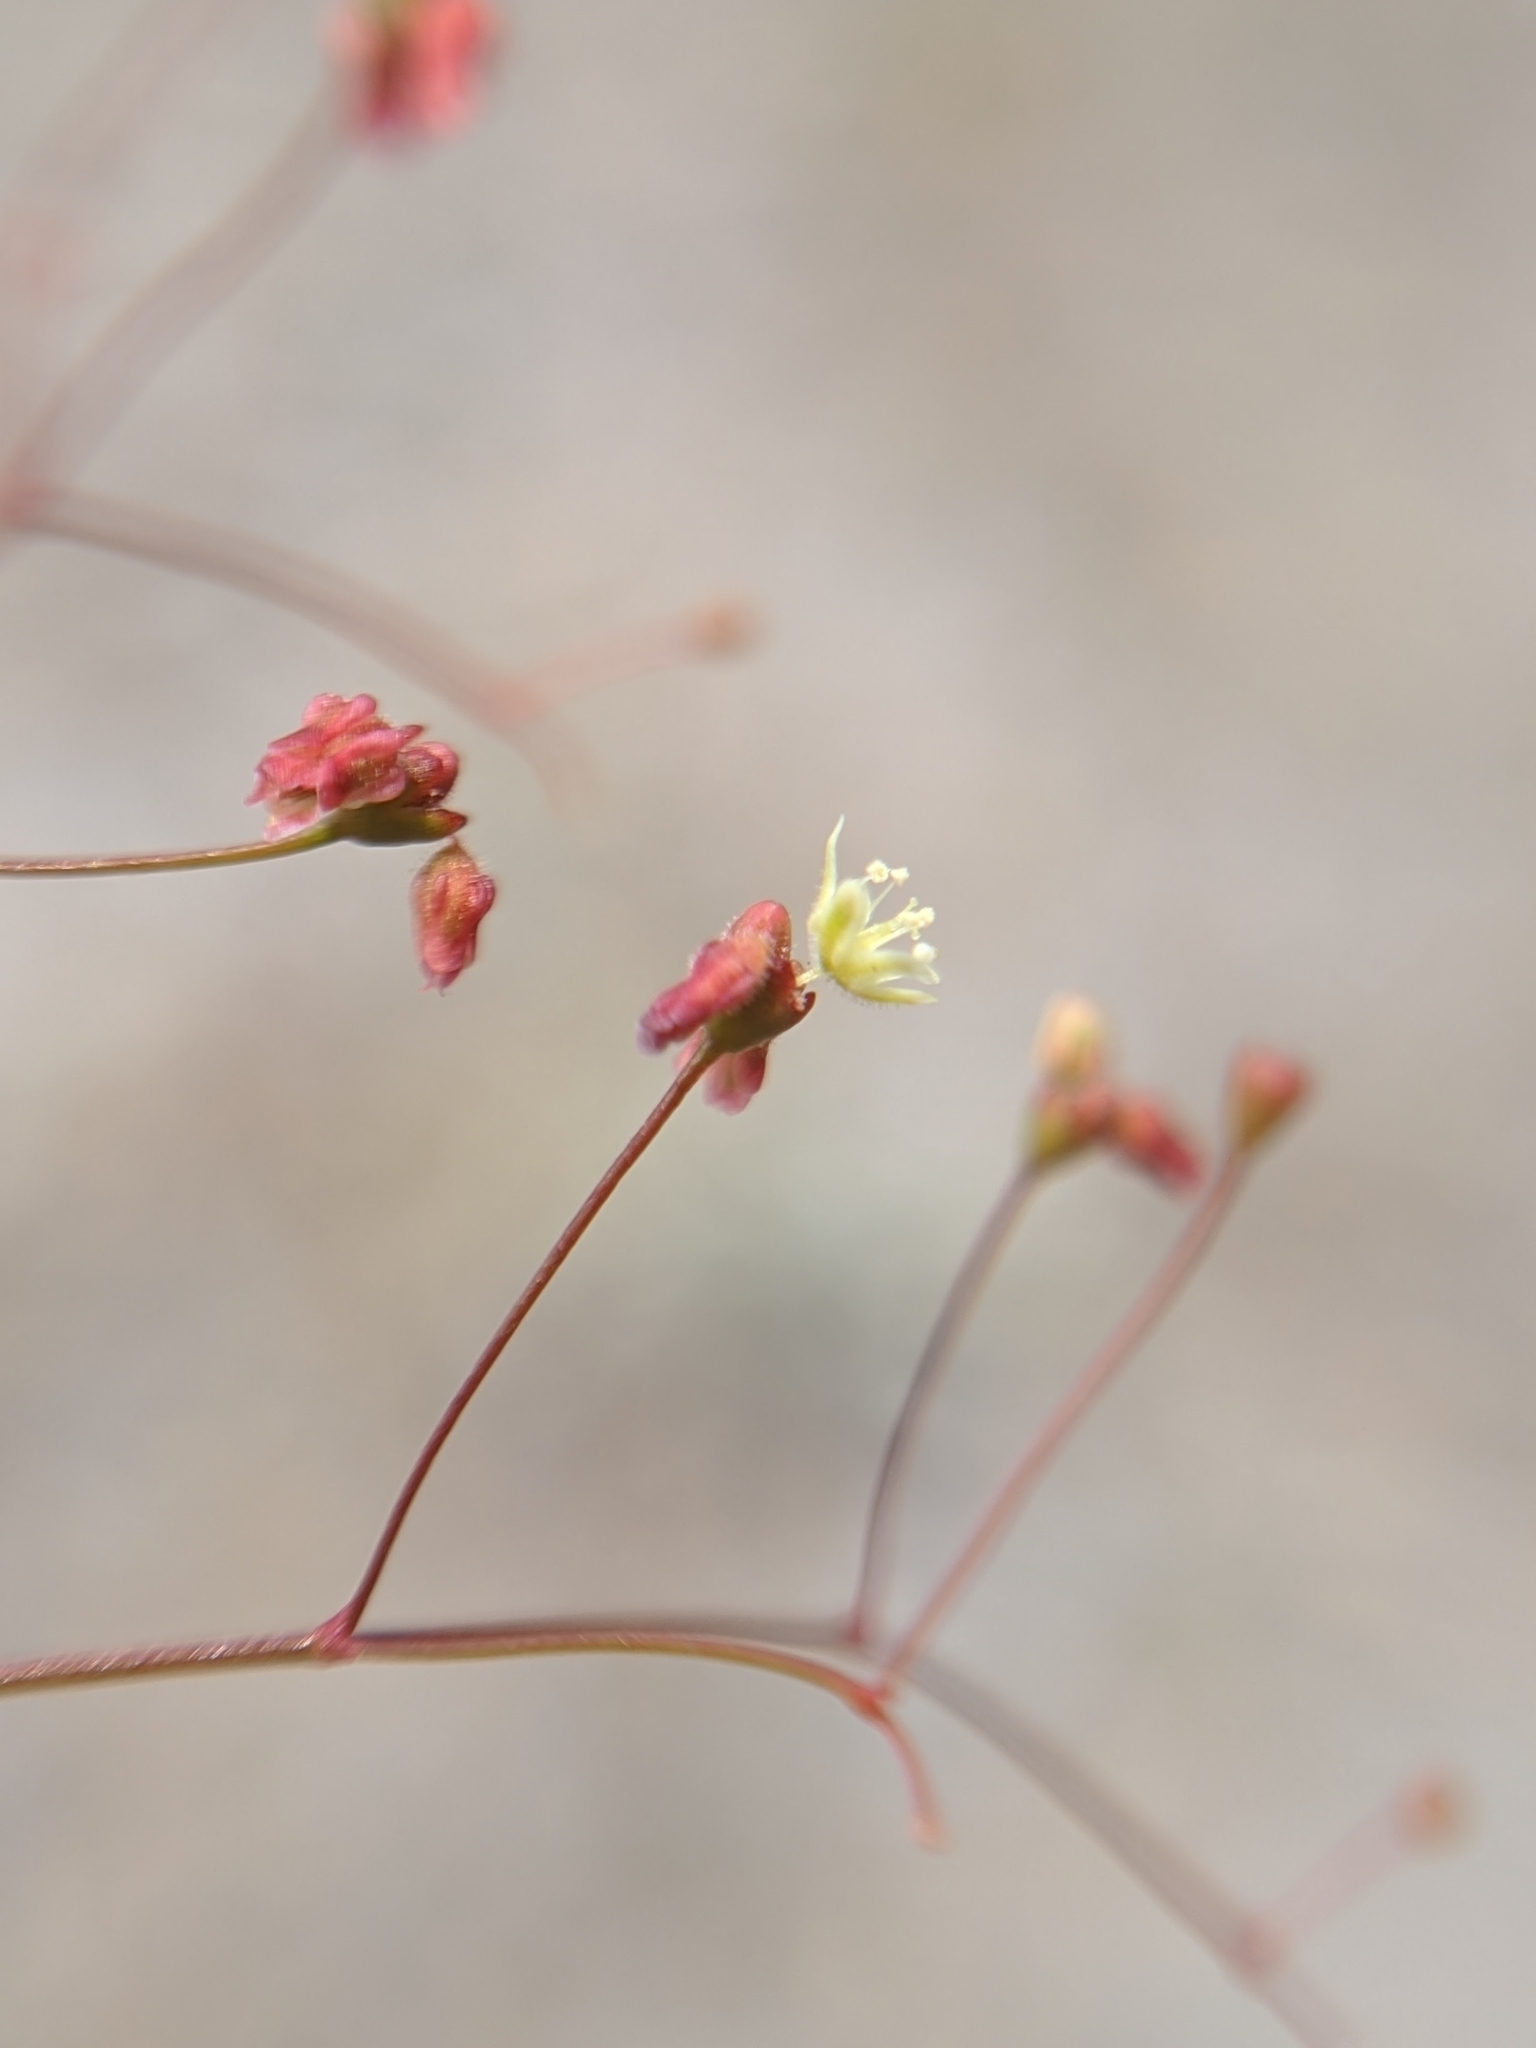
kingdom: Plantae
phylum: Tracheophyta
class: Magnoliopsida
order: Caryophyllales
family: Polygonaceae
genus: Eriogonum
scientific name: Eriogonum thomasii
